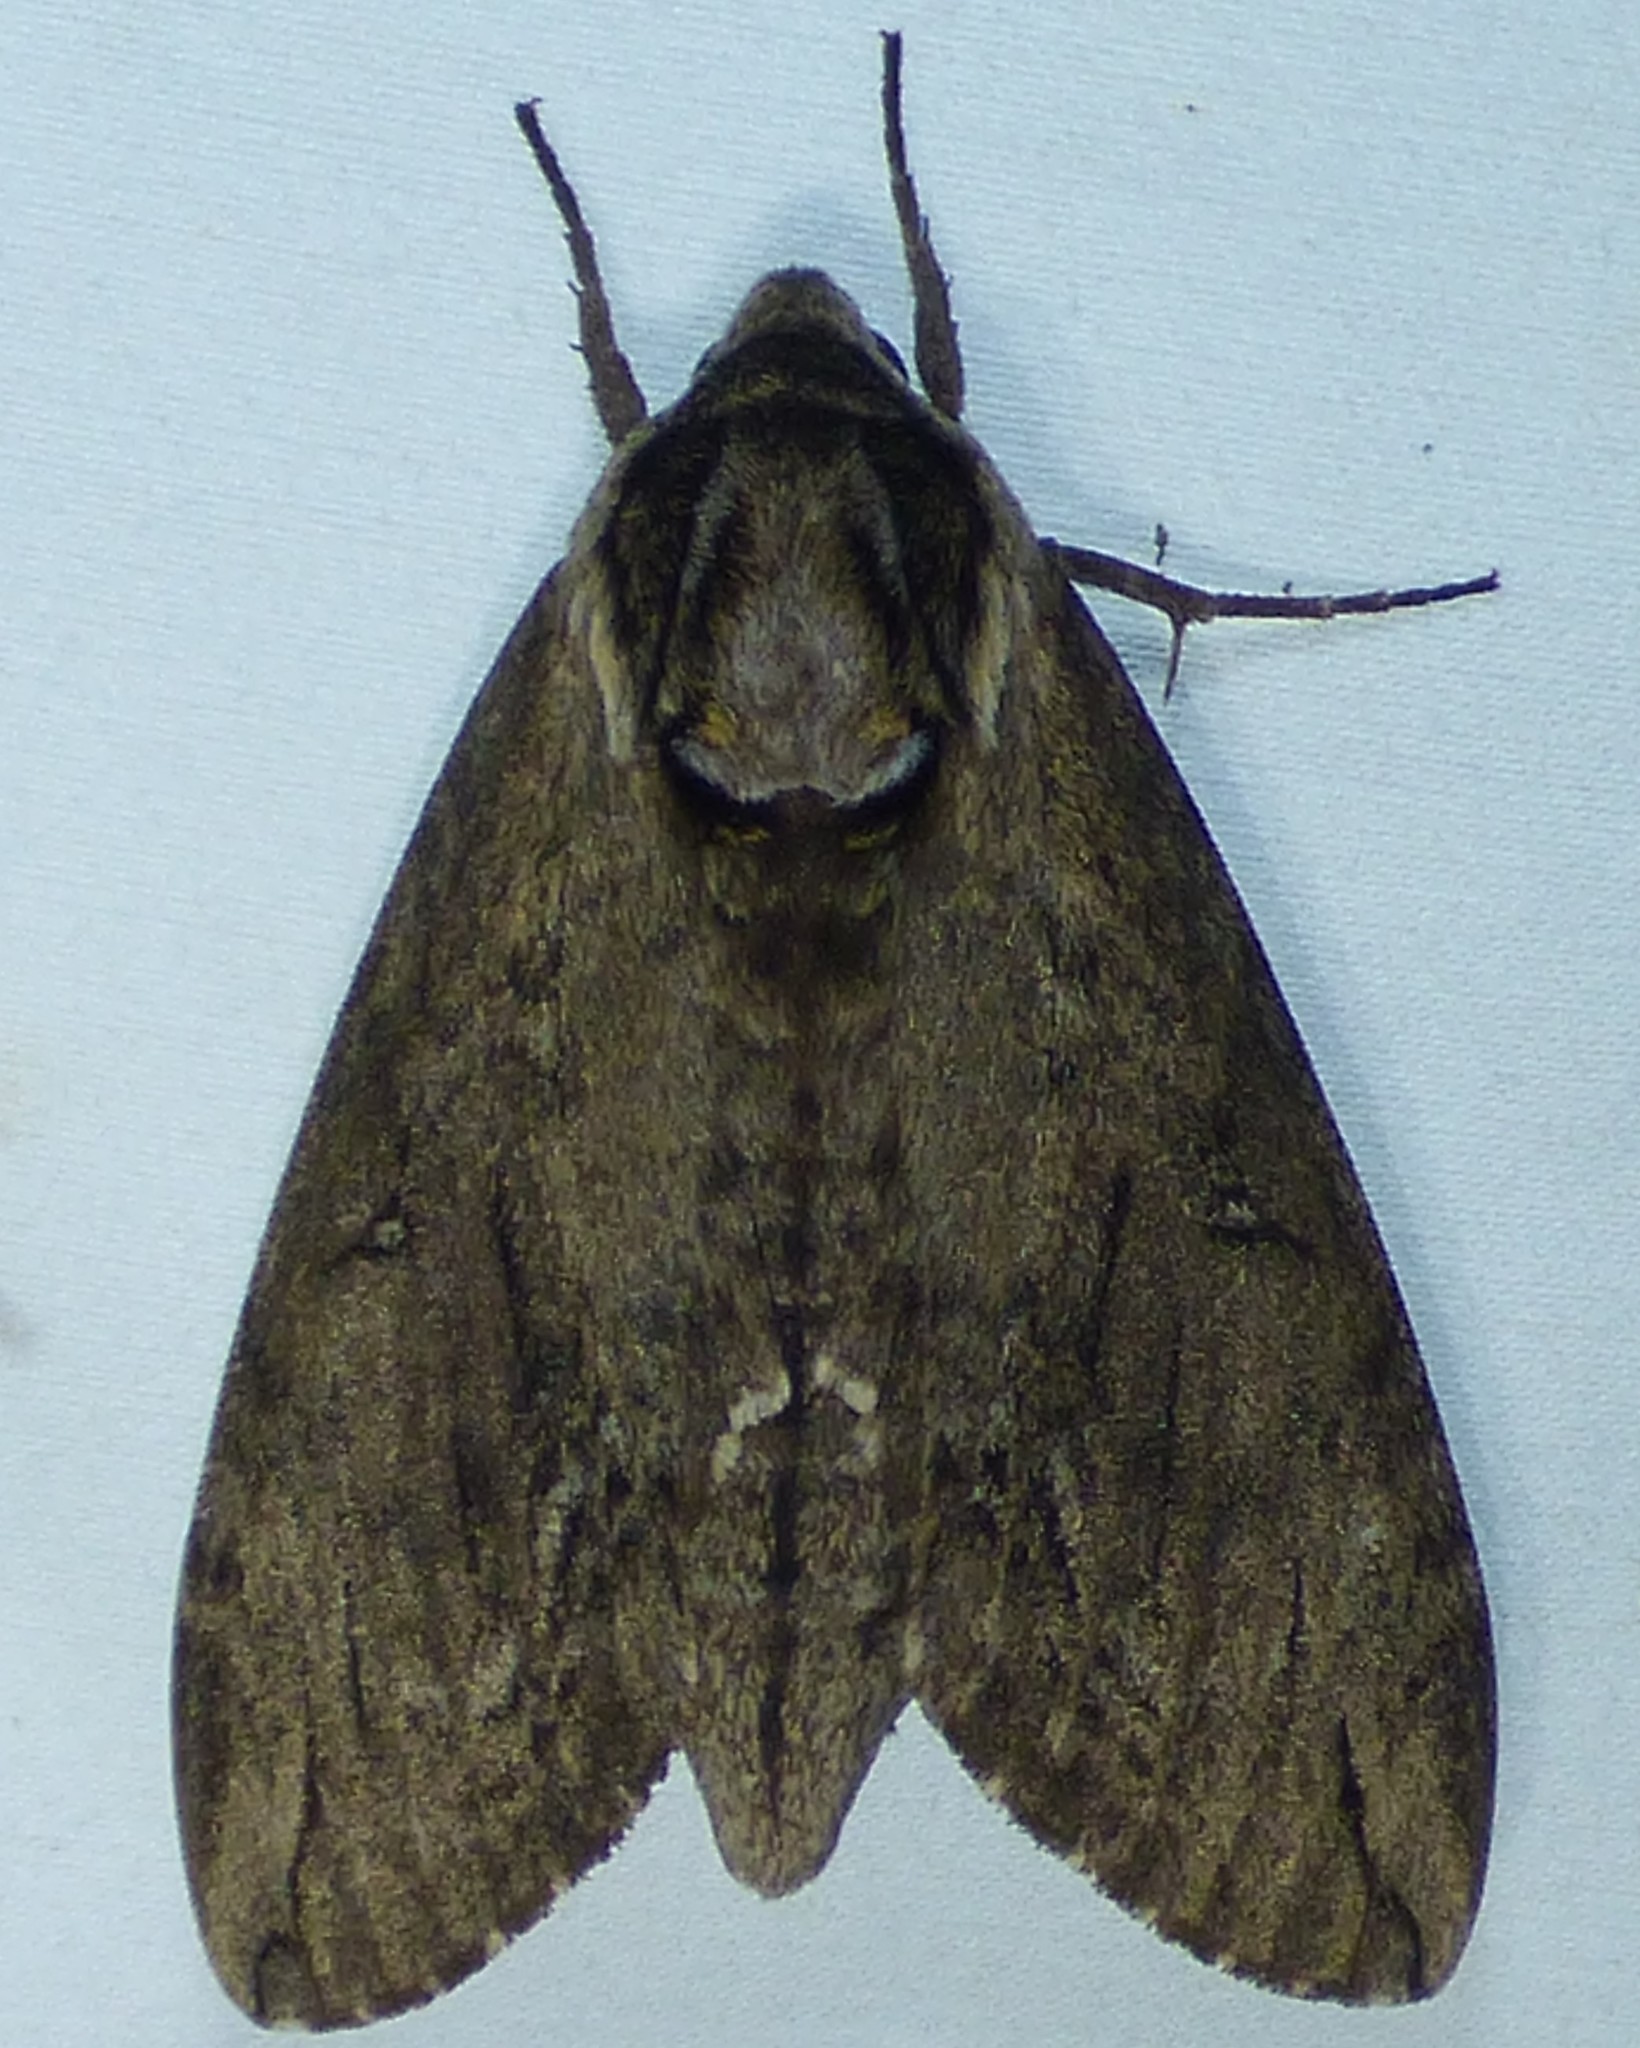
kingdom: Animalia
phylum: Arthropoda
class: Insecta
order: Lepidoptera
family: Sphingidae
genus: Ceratomia
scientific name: Ceratomia catalpae
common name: Catalpa hornworm
